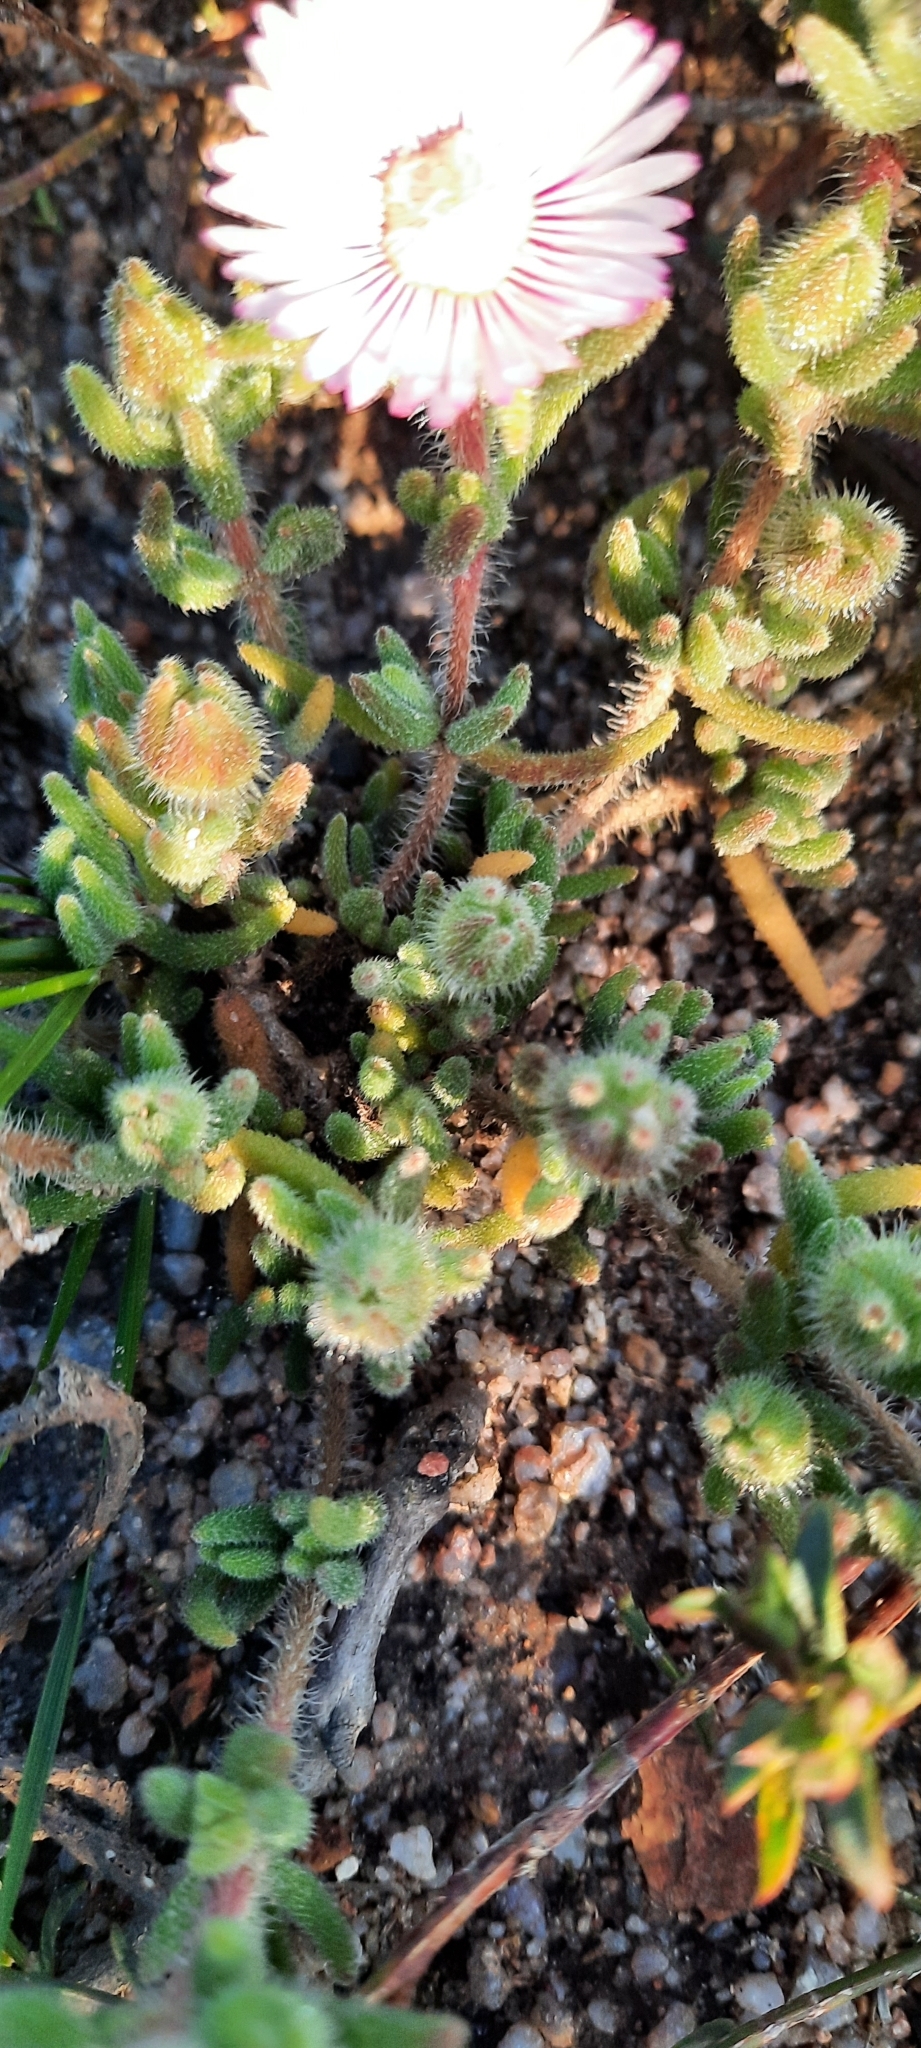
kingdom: Plantae
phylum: Tracheophyta
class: Magnoliopsida
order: Caryophyllales
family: Aizoaceae
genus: Drosanthemum
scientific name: Drosanthemum hispifolium
